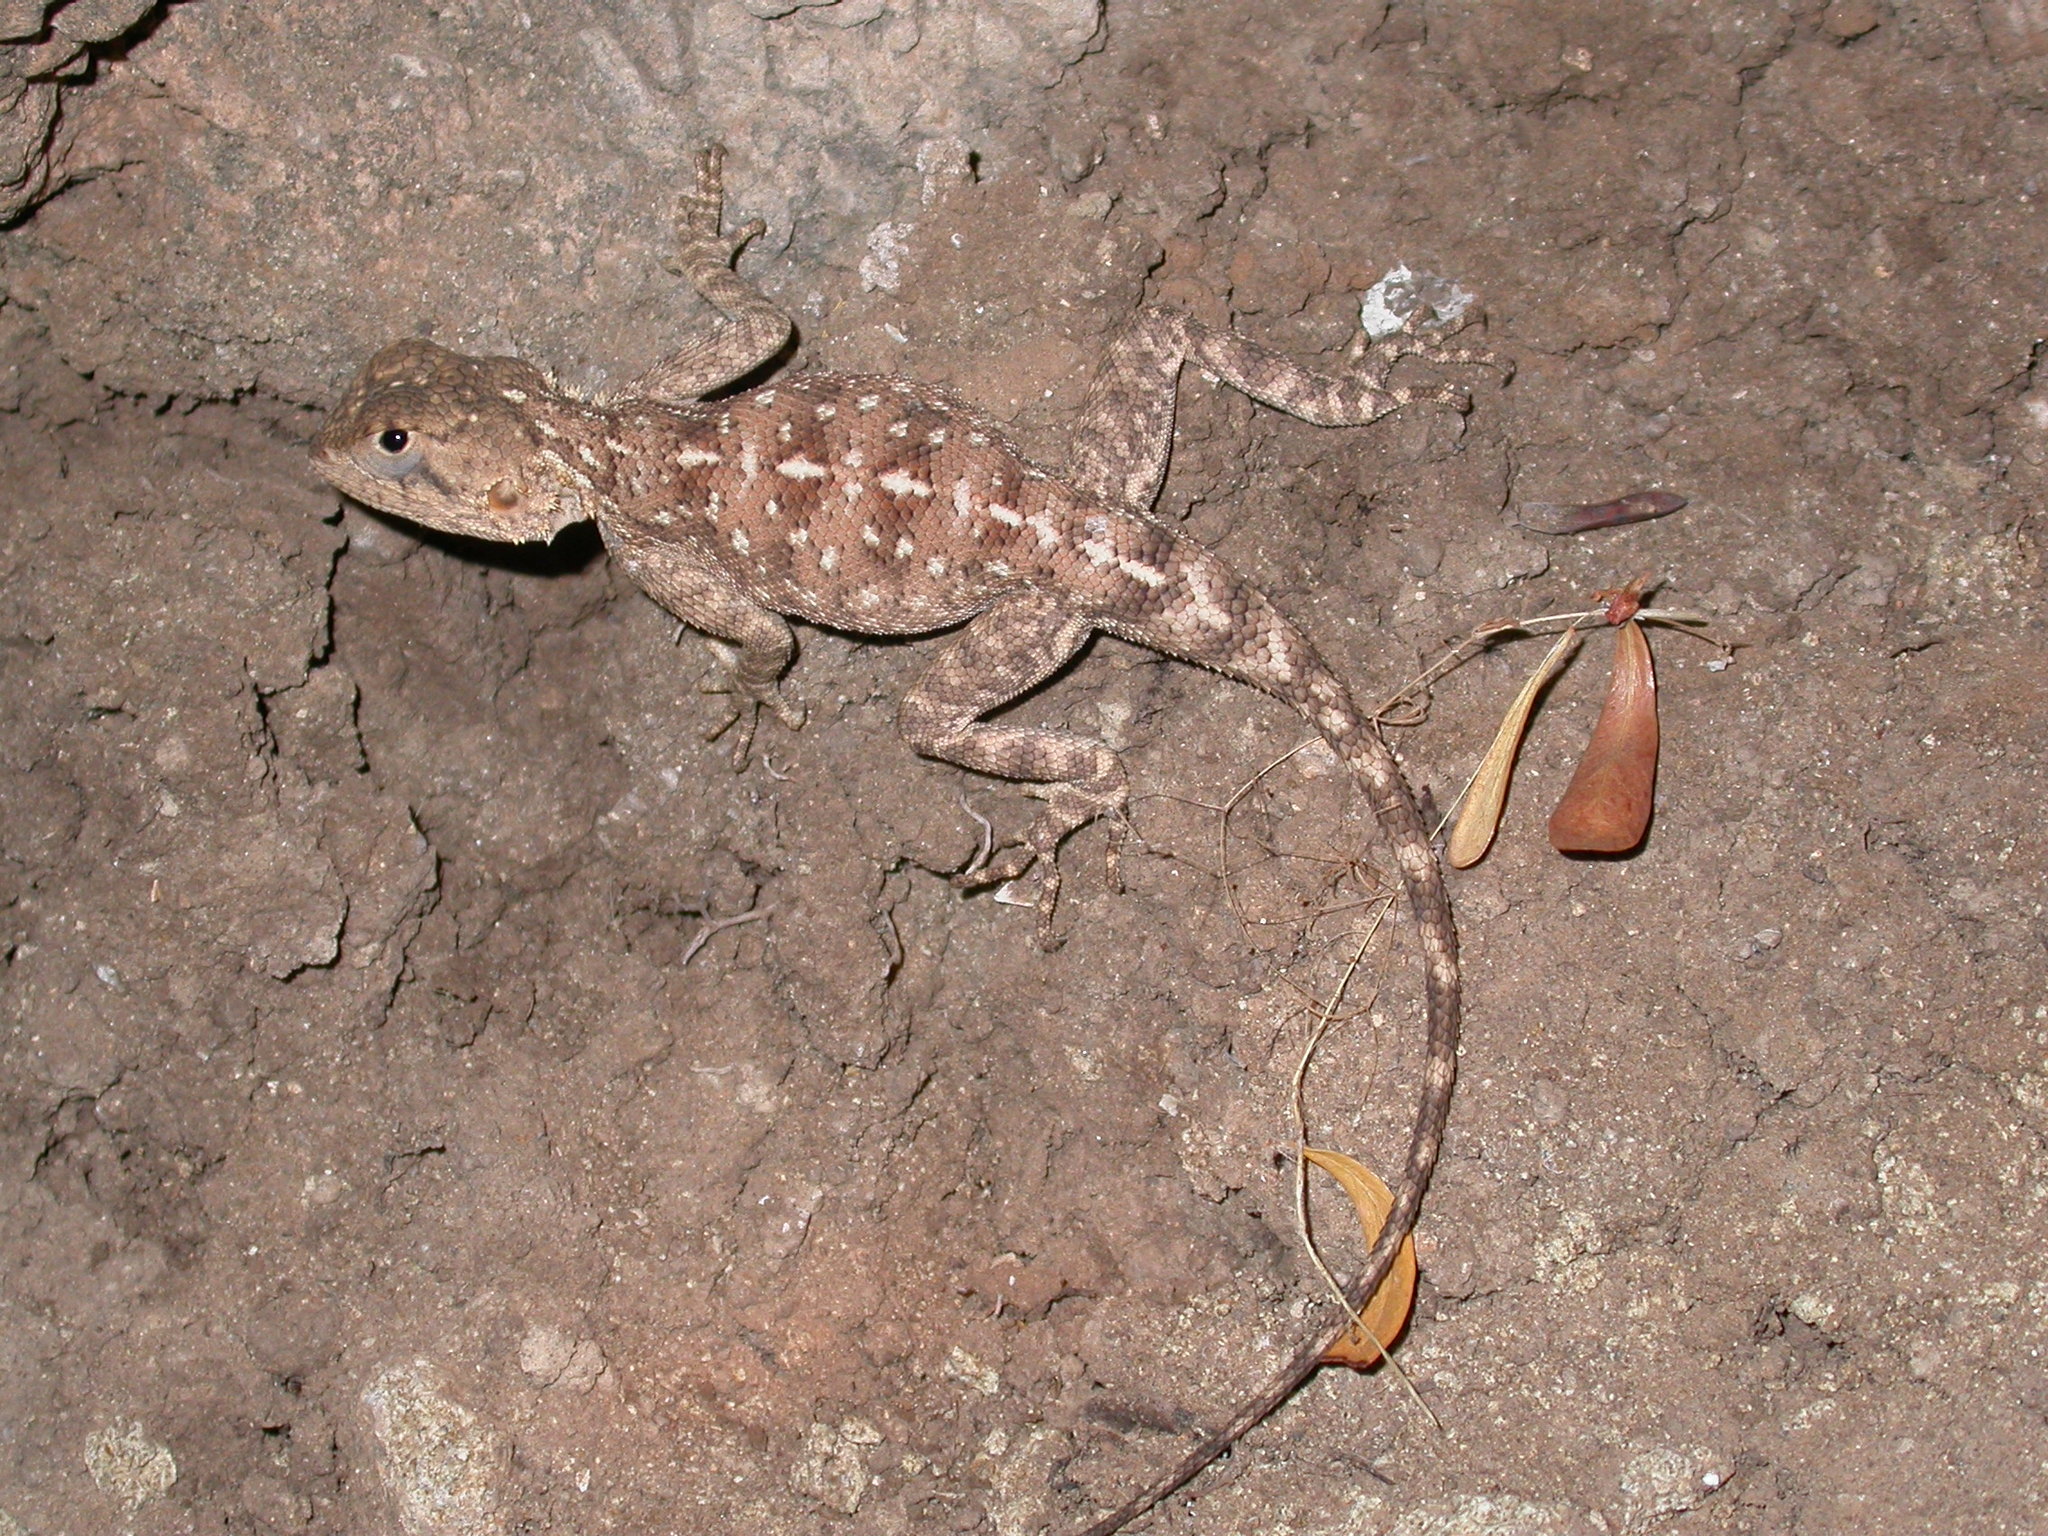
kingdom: Animalia
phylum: Chordata
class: Squamata
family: Agamidae
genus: Agama
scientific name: Agama impalearis
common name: Bibron's agama
